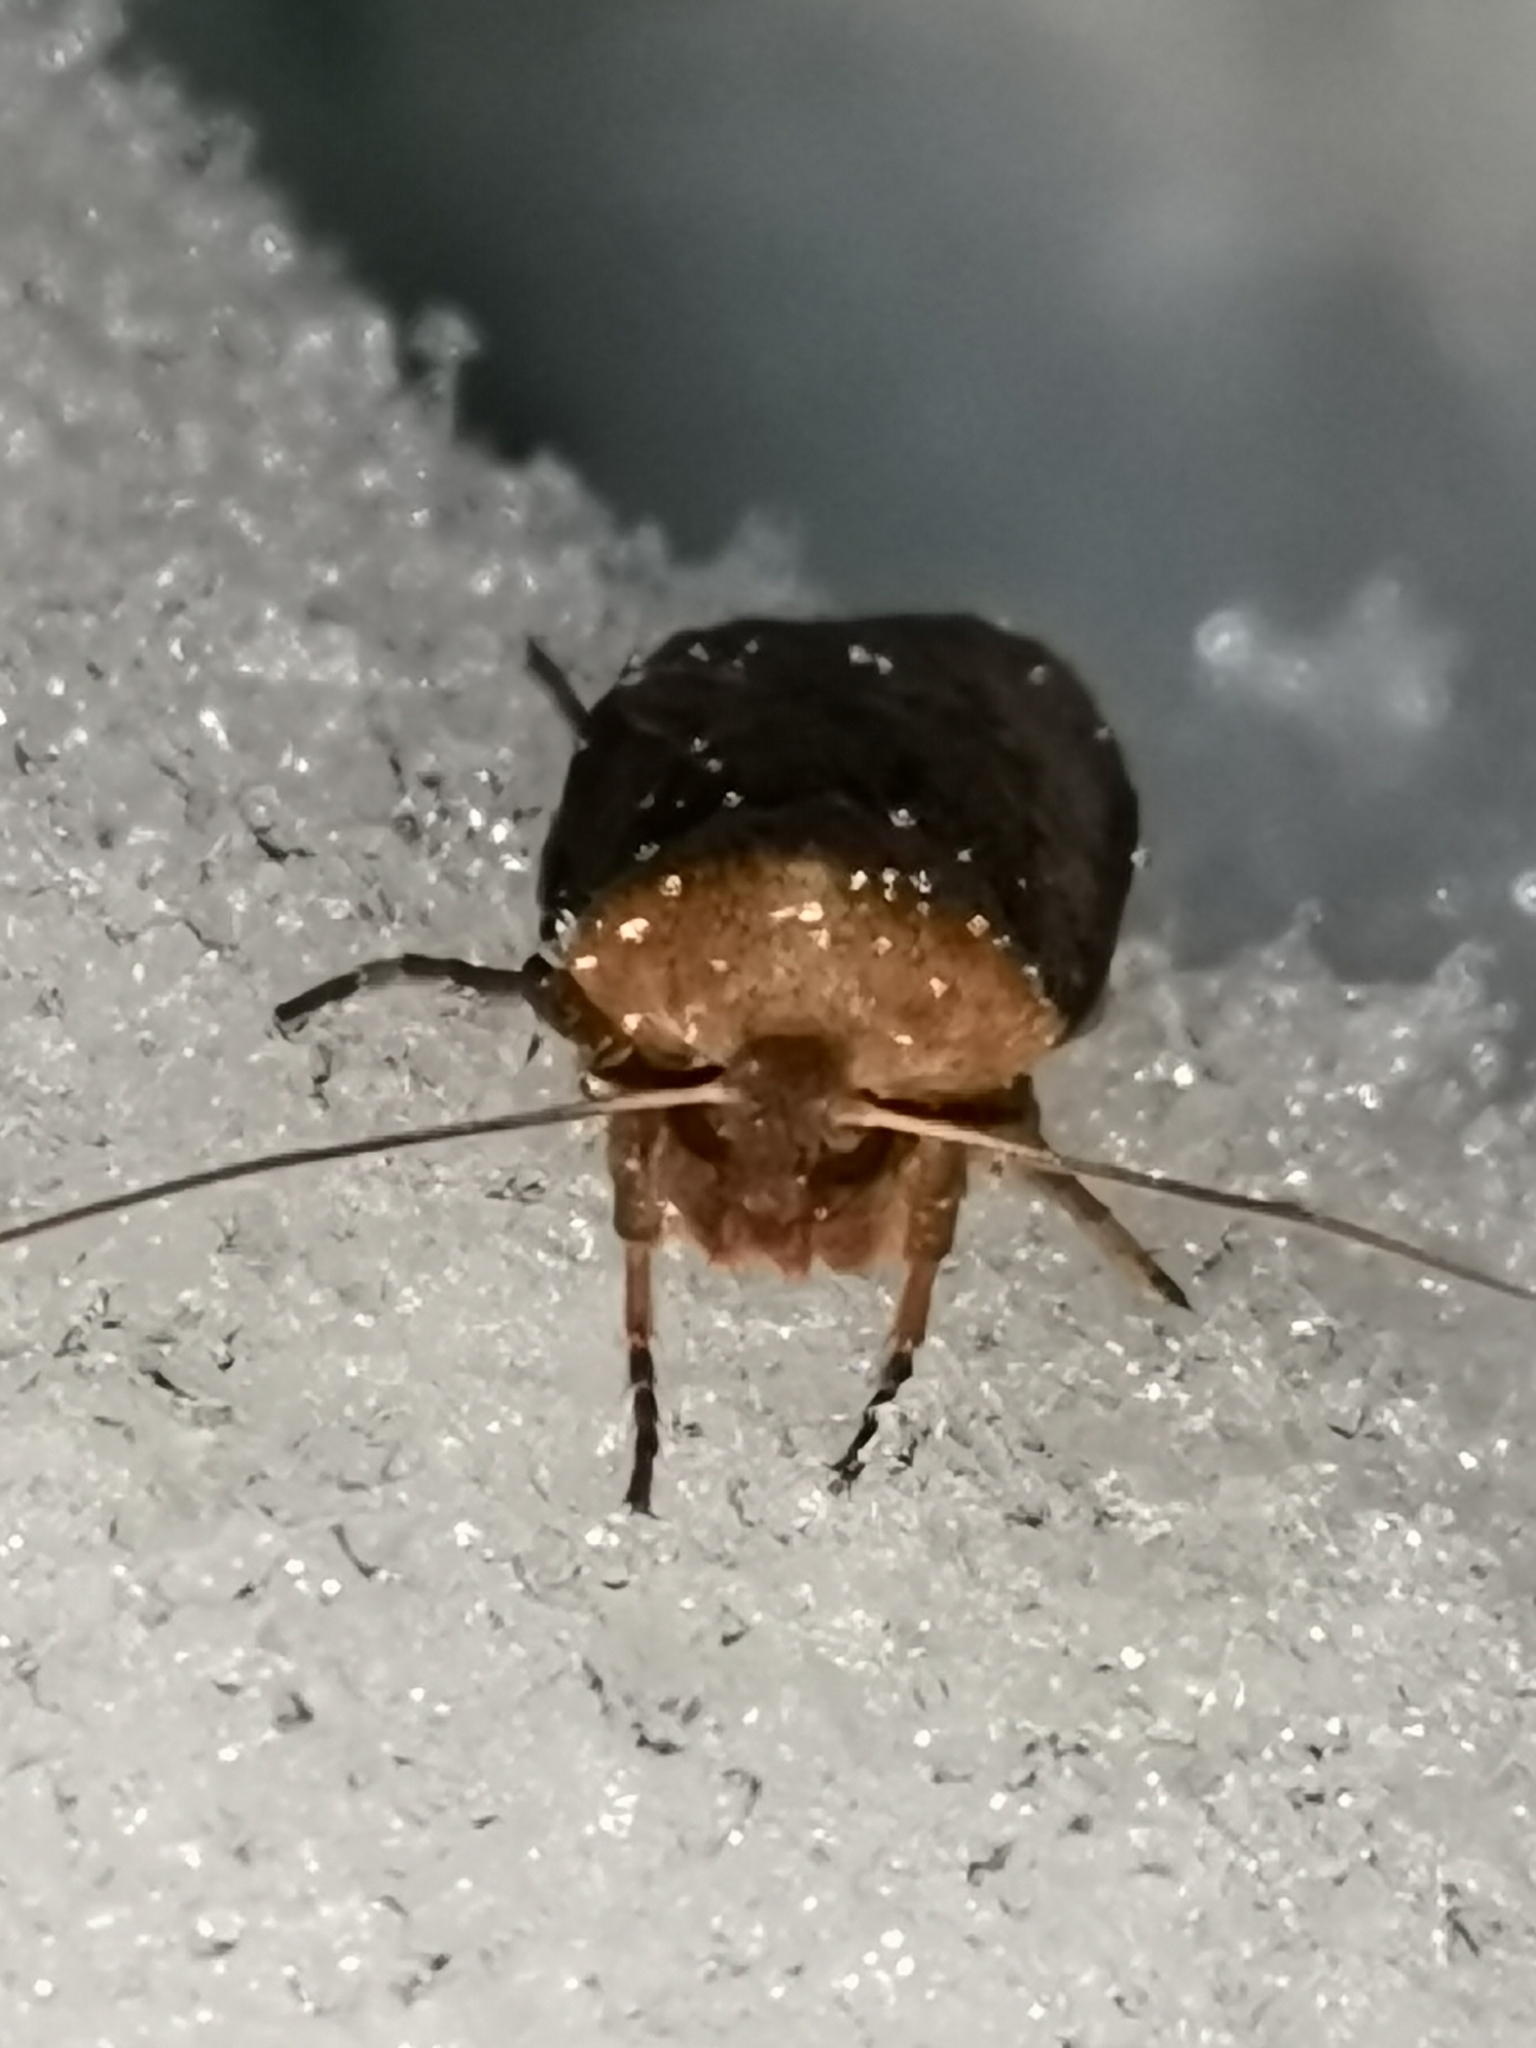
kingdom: Animalia
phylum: Arthropoda
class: Insecta
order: Lepidoptera
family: Noctuidae
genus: Conistra
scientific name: Conistra vaccinii
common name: Chestnut
